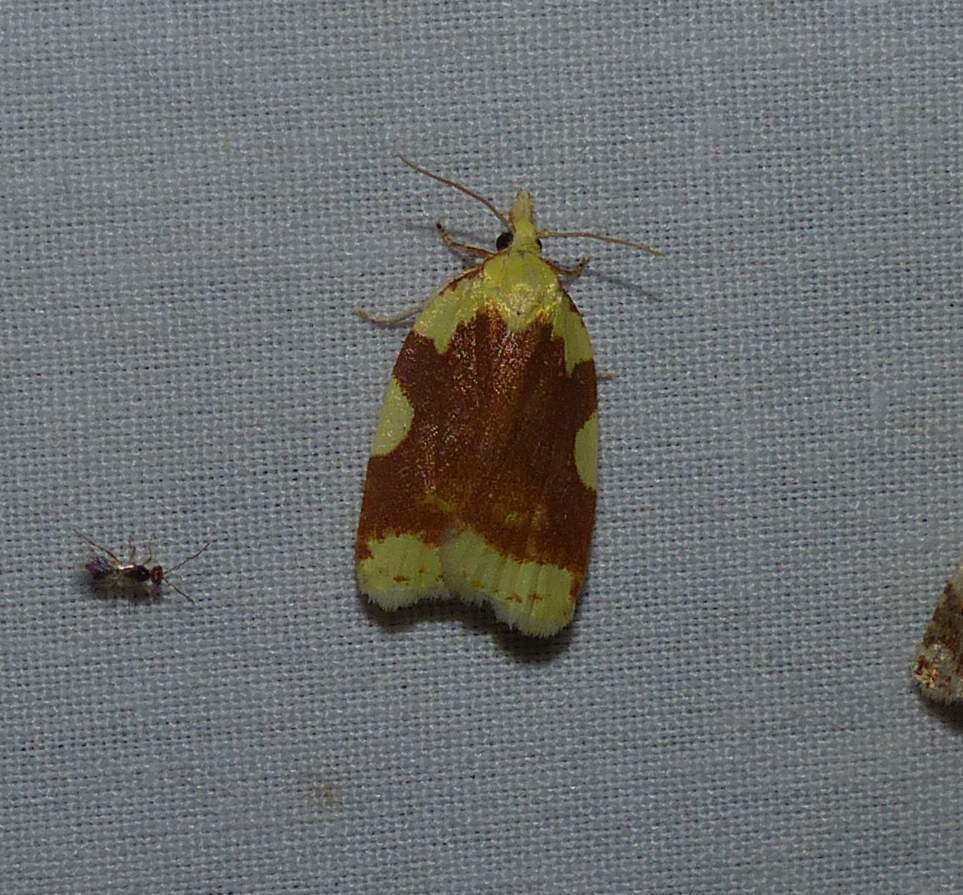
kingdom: Animalia
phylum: Arthropoda
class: Insecta
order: Lepidoptera
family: Tortricidae
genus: Cenopis
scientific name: Cenopis niveana
